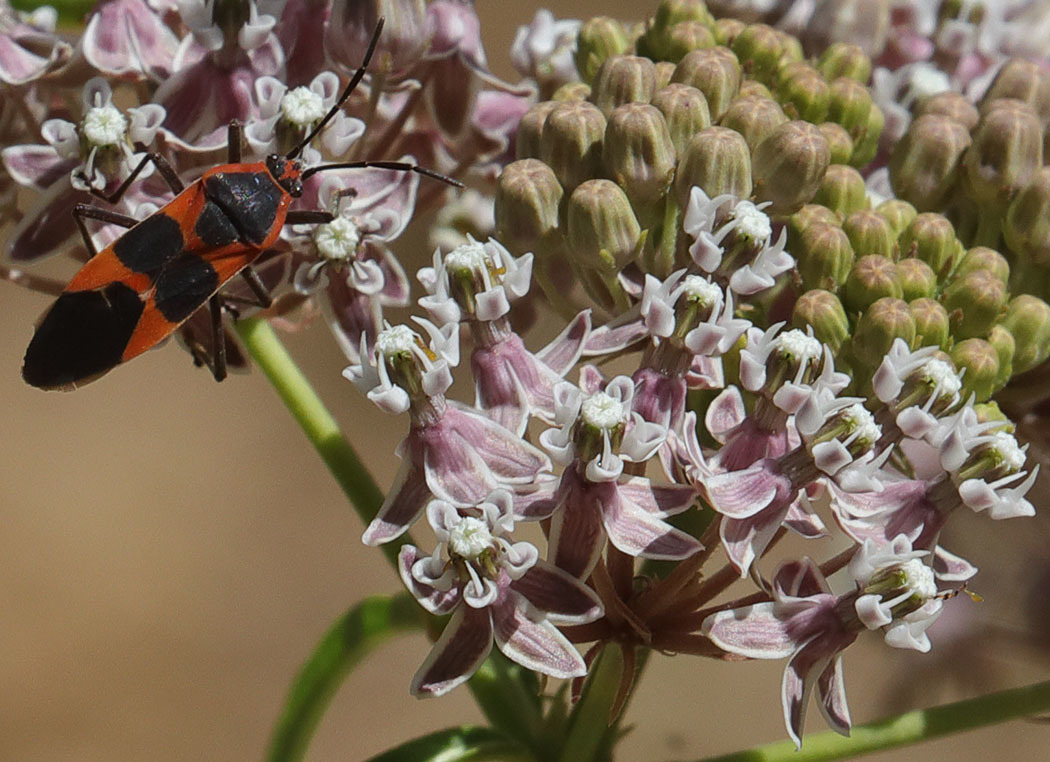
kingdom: Animalia
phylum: Arthropoda
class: Insecta
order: Hemiptera
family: Lygaeidae
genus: Oncopeltus
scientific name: Oncopeltus fasciatus
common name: Large milkweed bug
